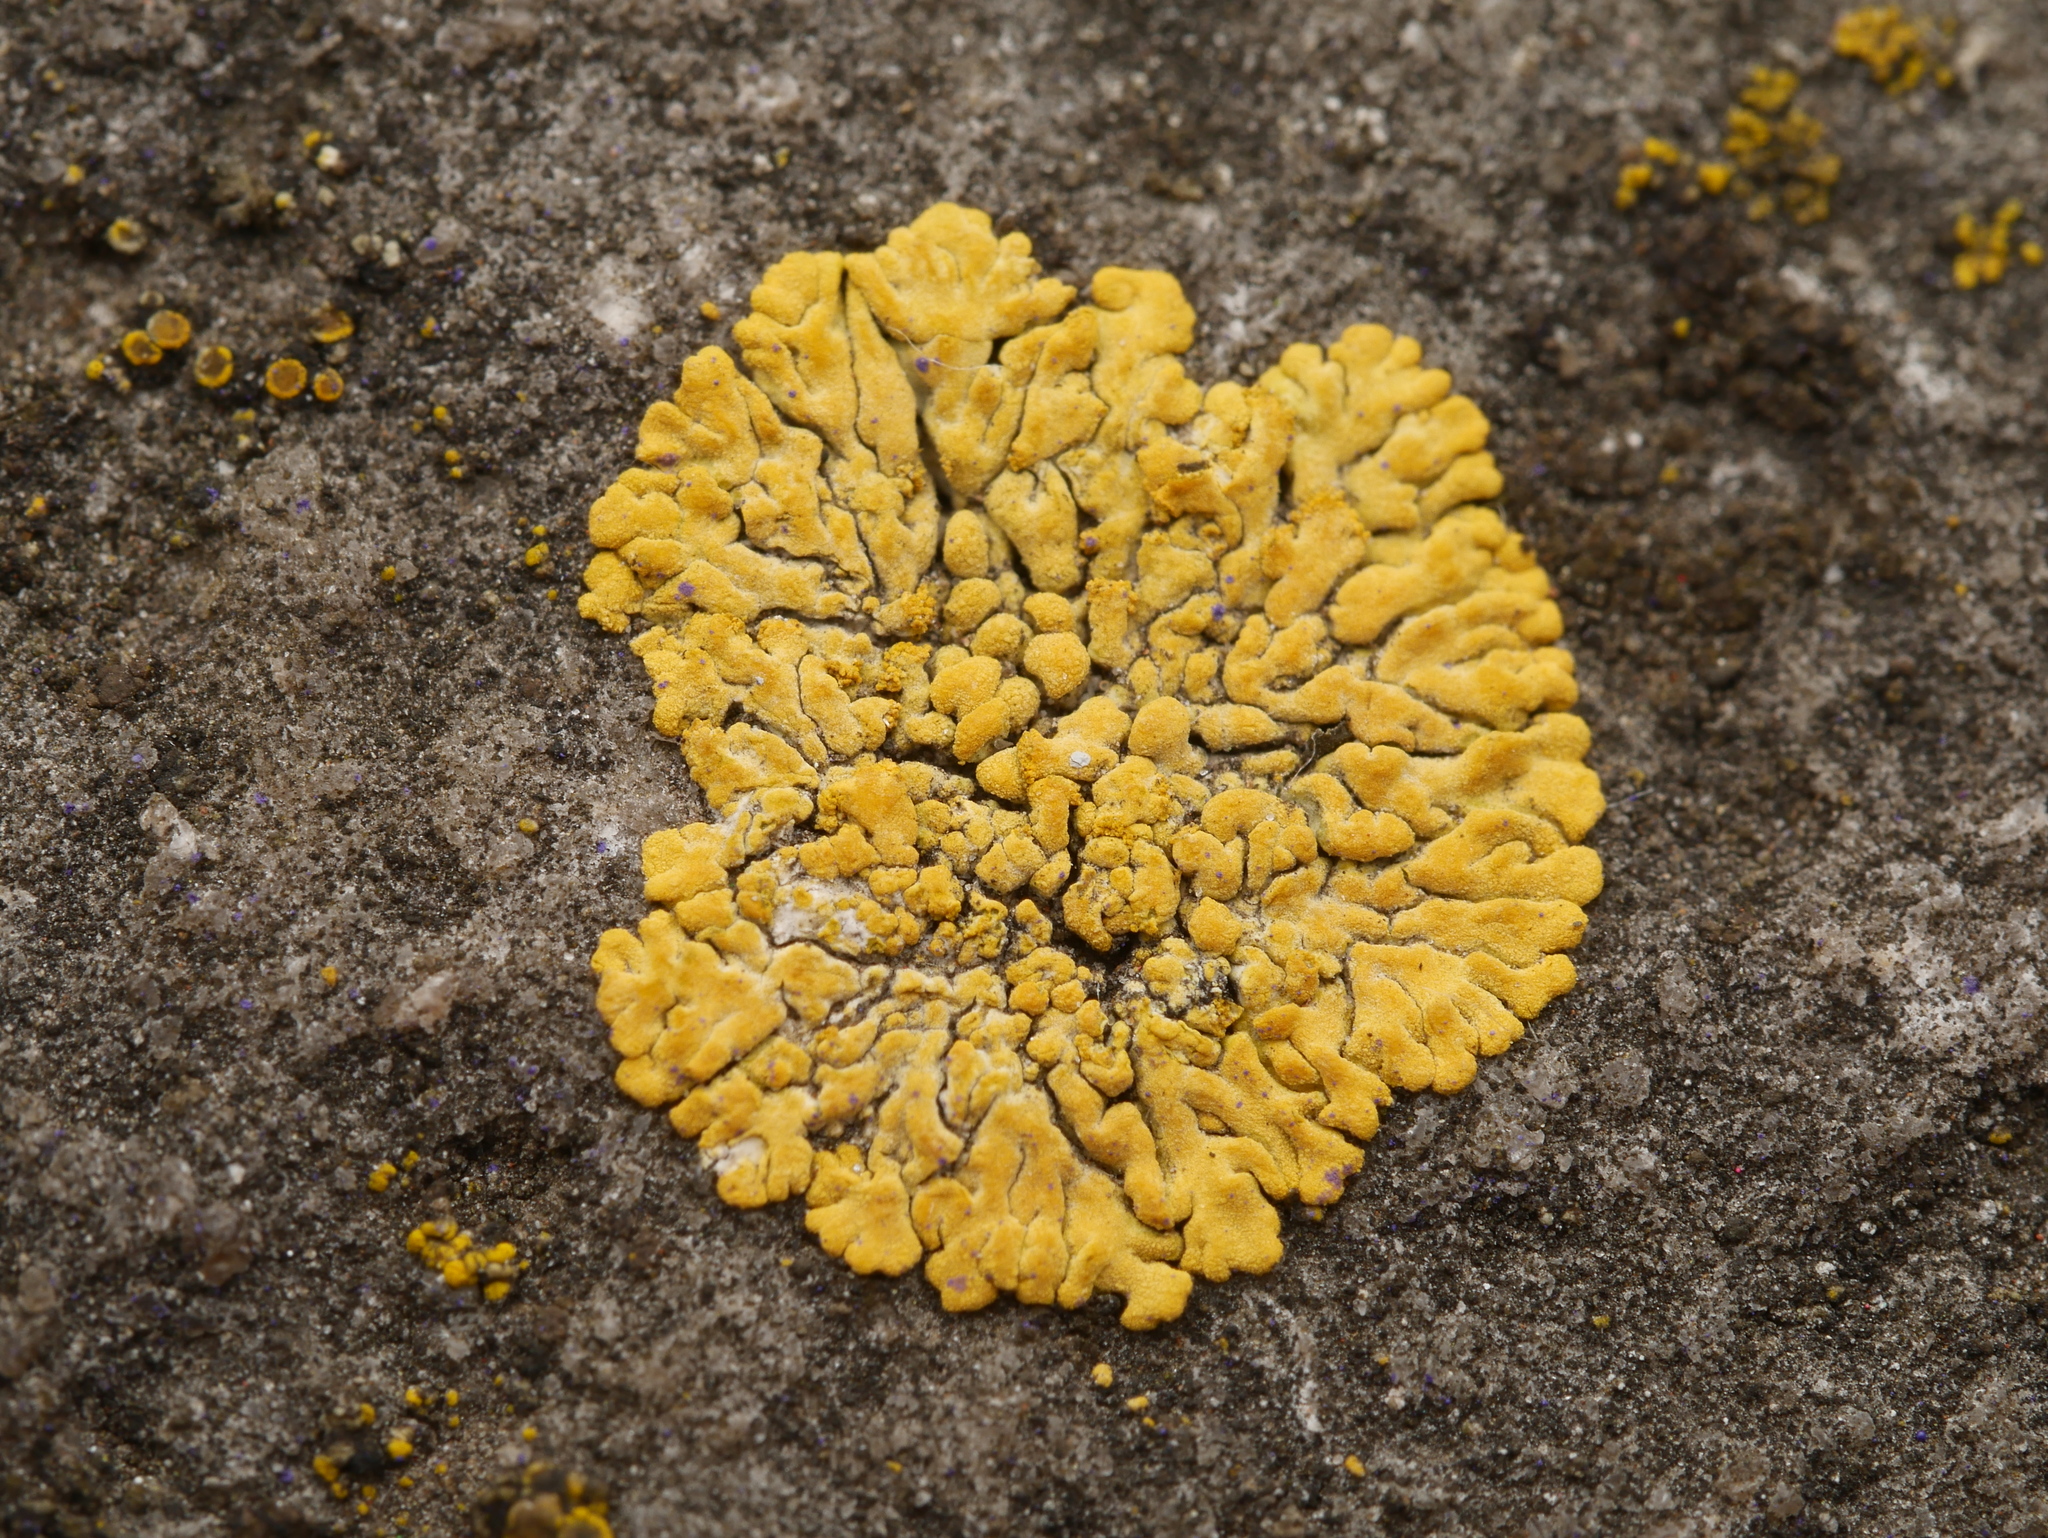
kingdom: Fungi
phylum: Ascomycota
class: Lecanoromycetes
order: Teloschistales
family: Teloschistaceae
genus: Calogaya
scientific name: Calogaya decipiens
